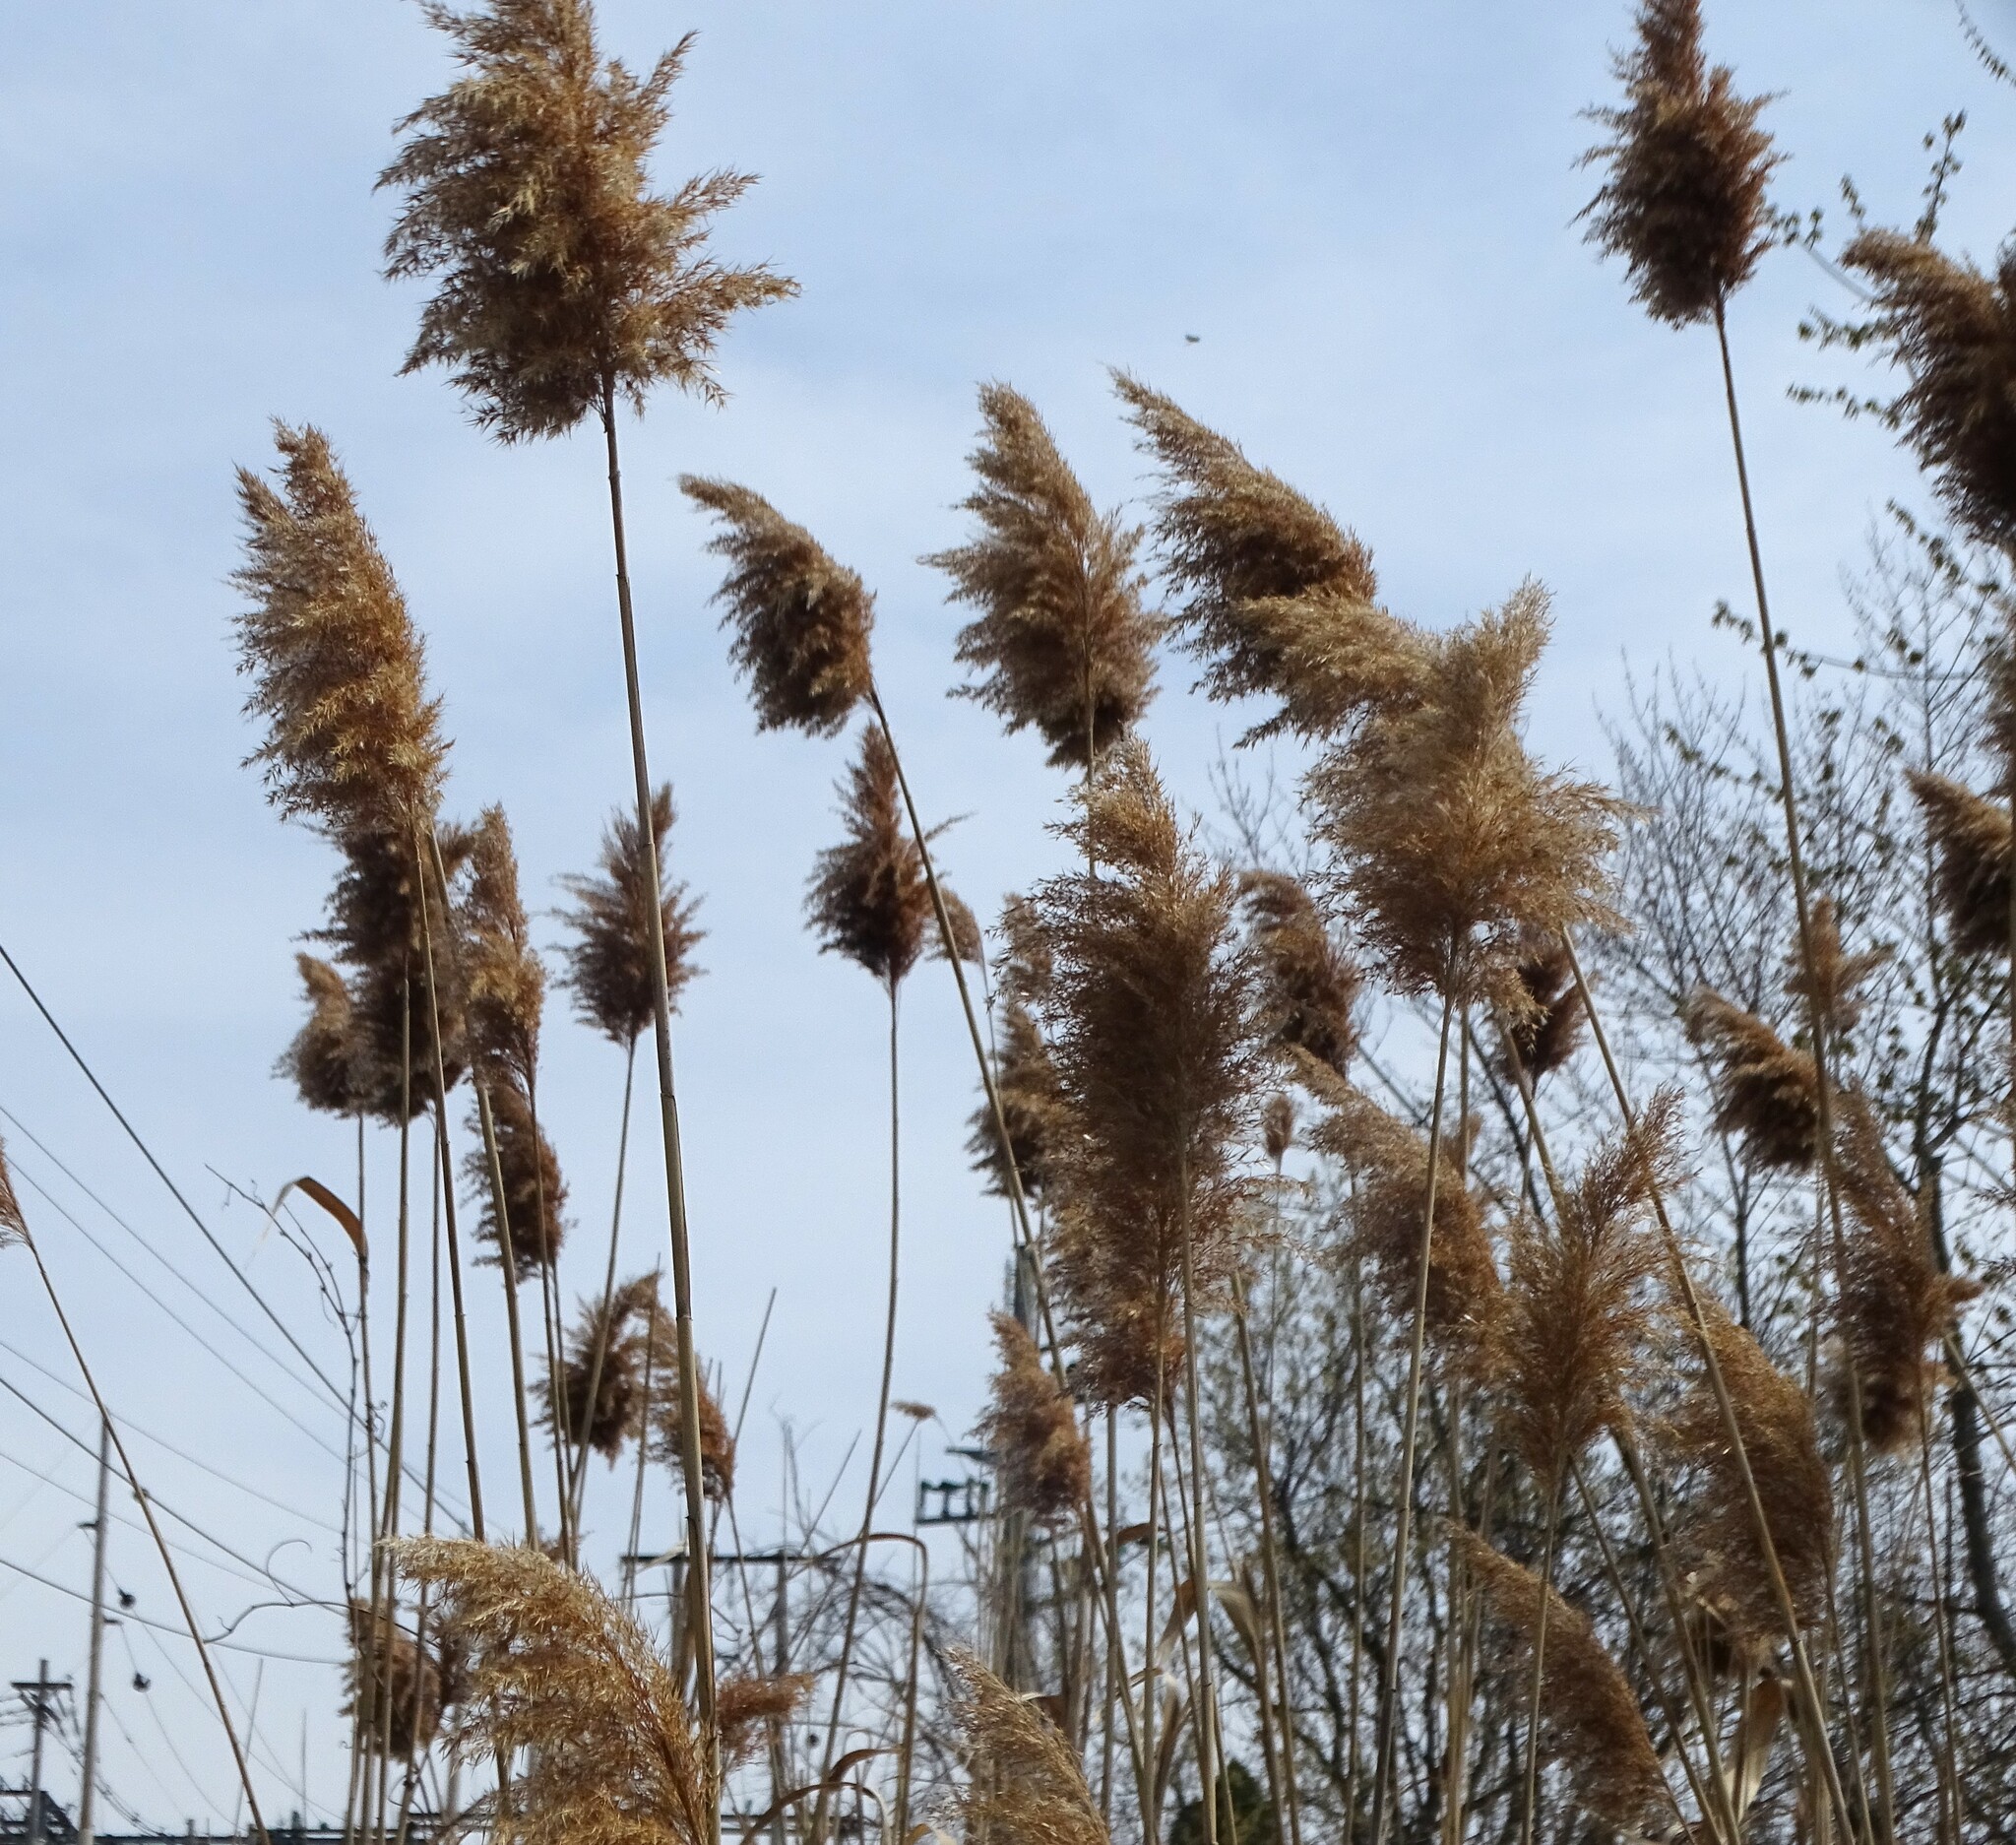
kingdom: Plantae
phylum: Tracheophyta
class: Liliopsida
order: Poales
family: Poaceae
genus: Phragmites
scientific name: Phragmites australis
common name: Common reed
